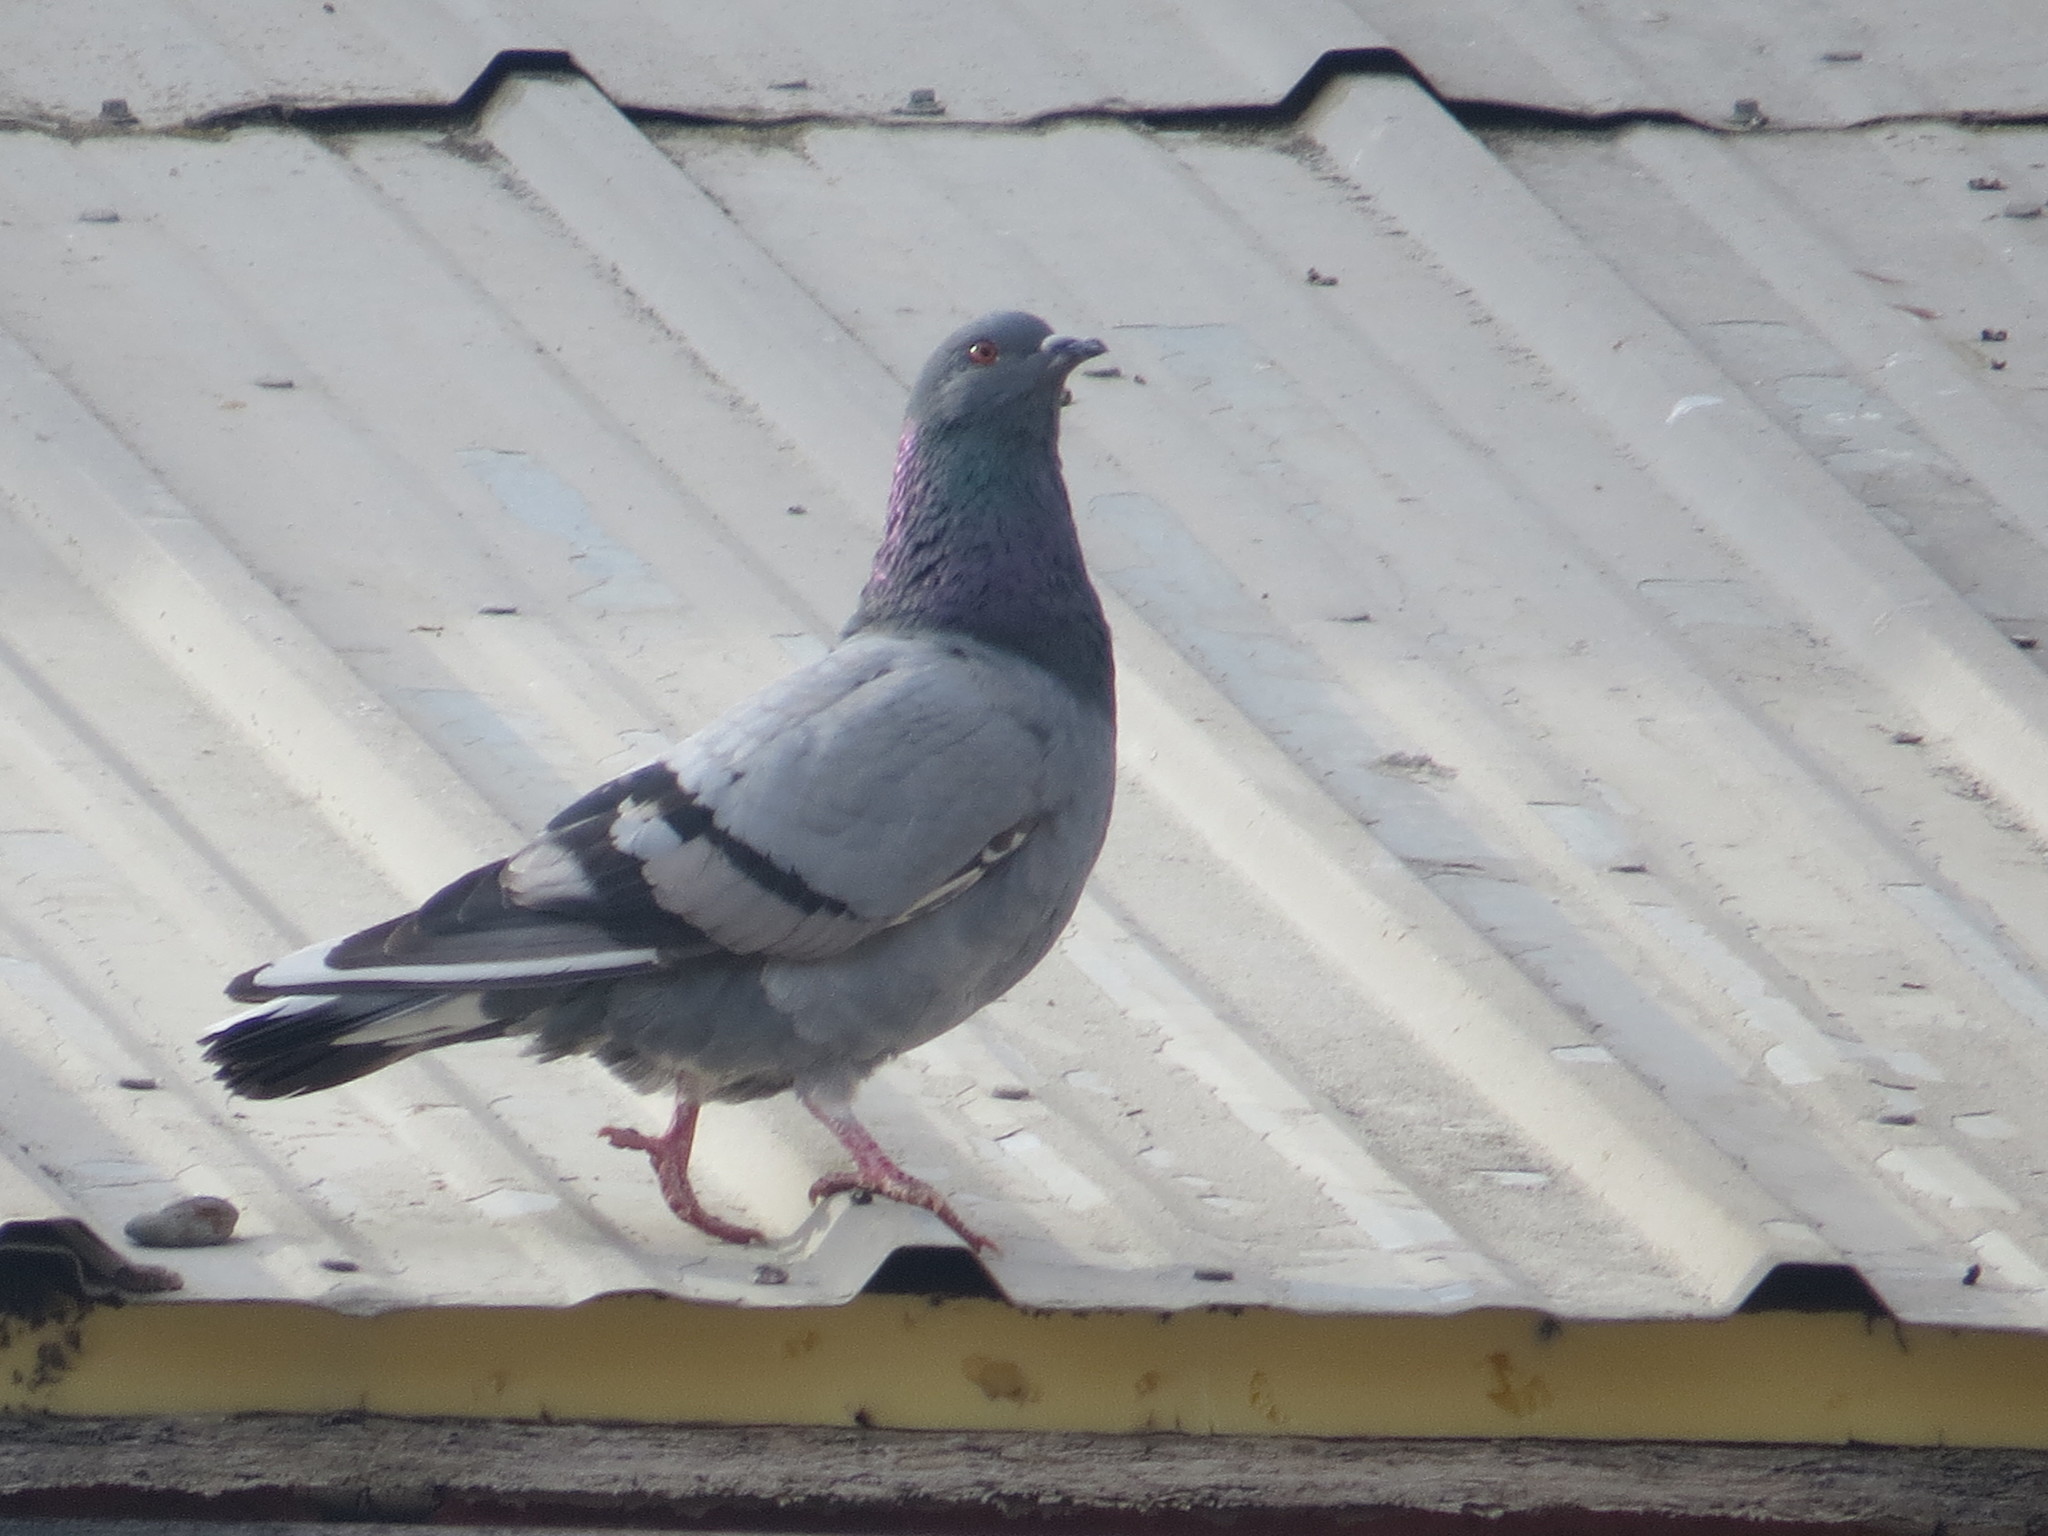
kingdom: Animalia
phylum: Chordata
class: Aves
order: Columbiformes
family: Columbidae
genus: Columba
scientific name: Columba livia
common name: Rock pigeon
